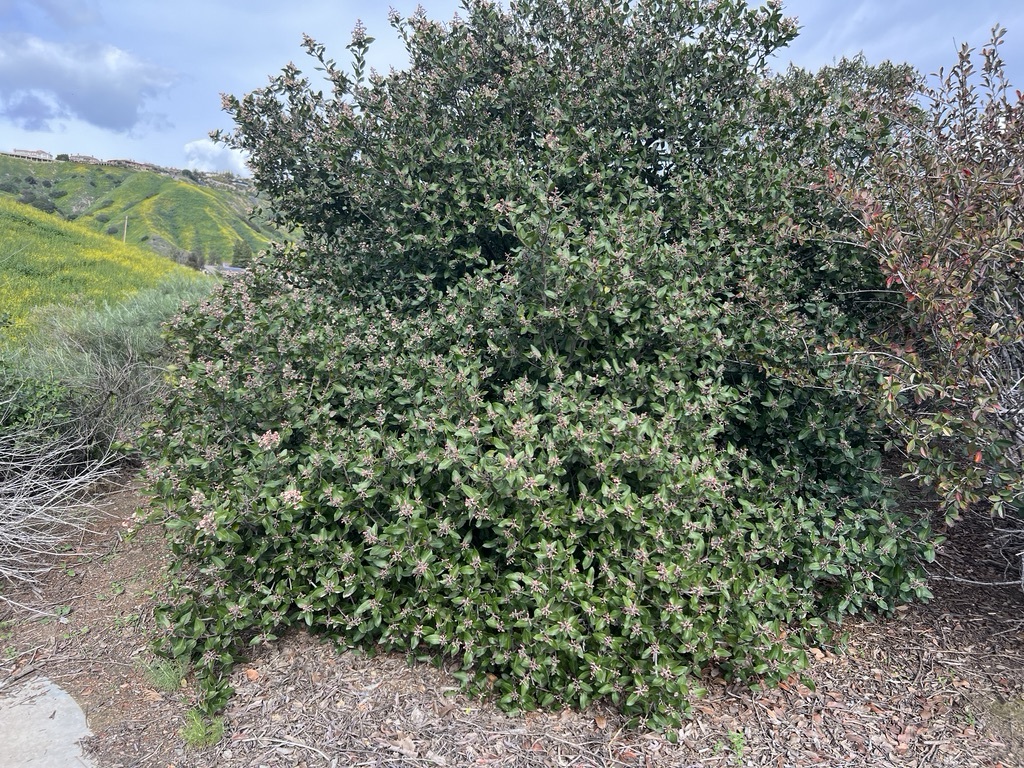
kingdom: Plantae
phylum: Tracheophyta
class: Magnoliopsida
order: Sapindales
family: Anacardiaceae
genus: Rhus
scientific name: Rhus
